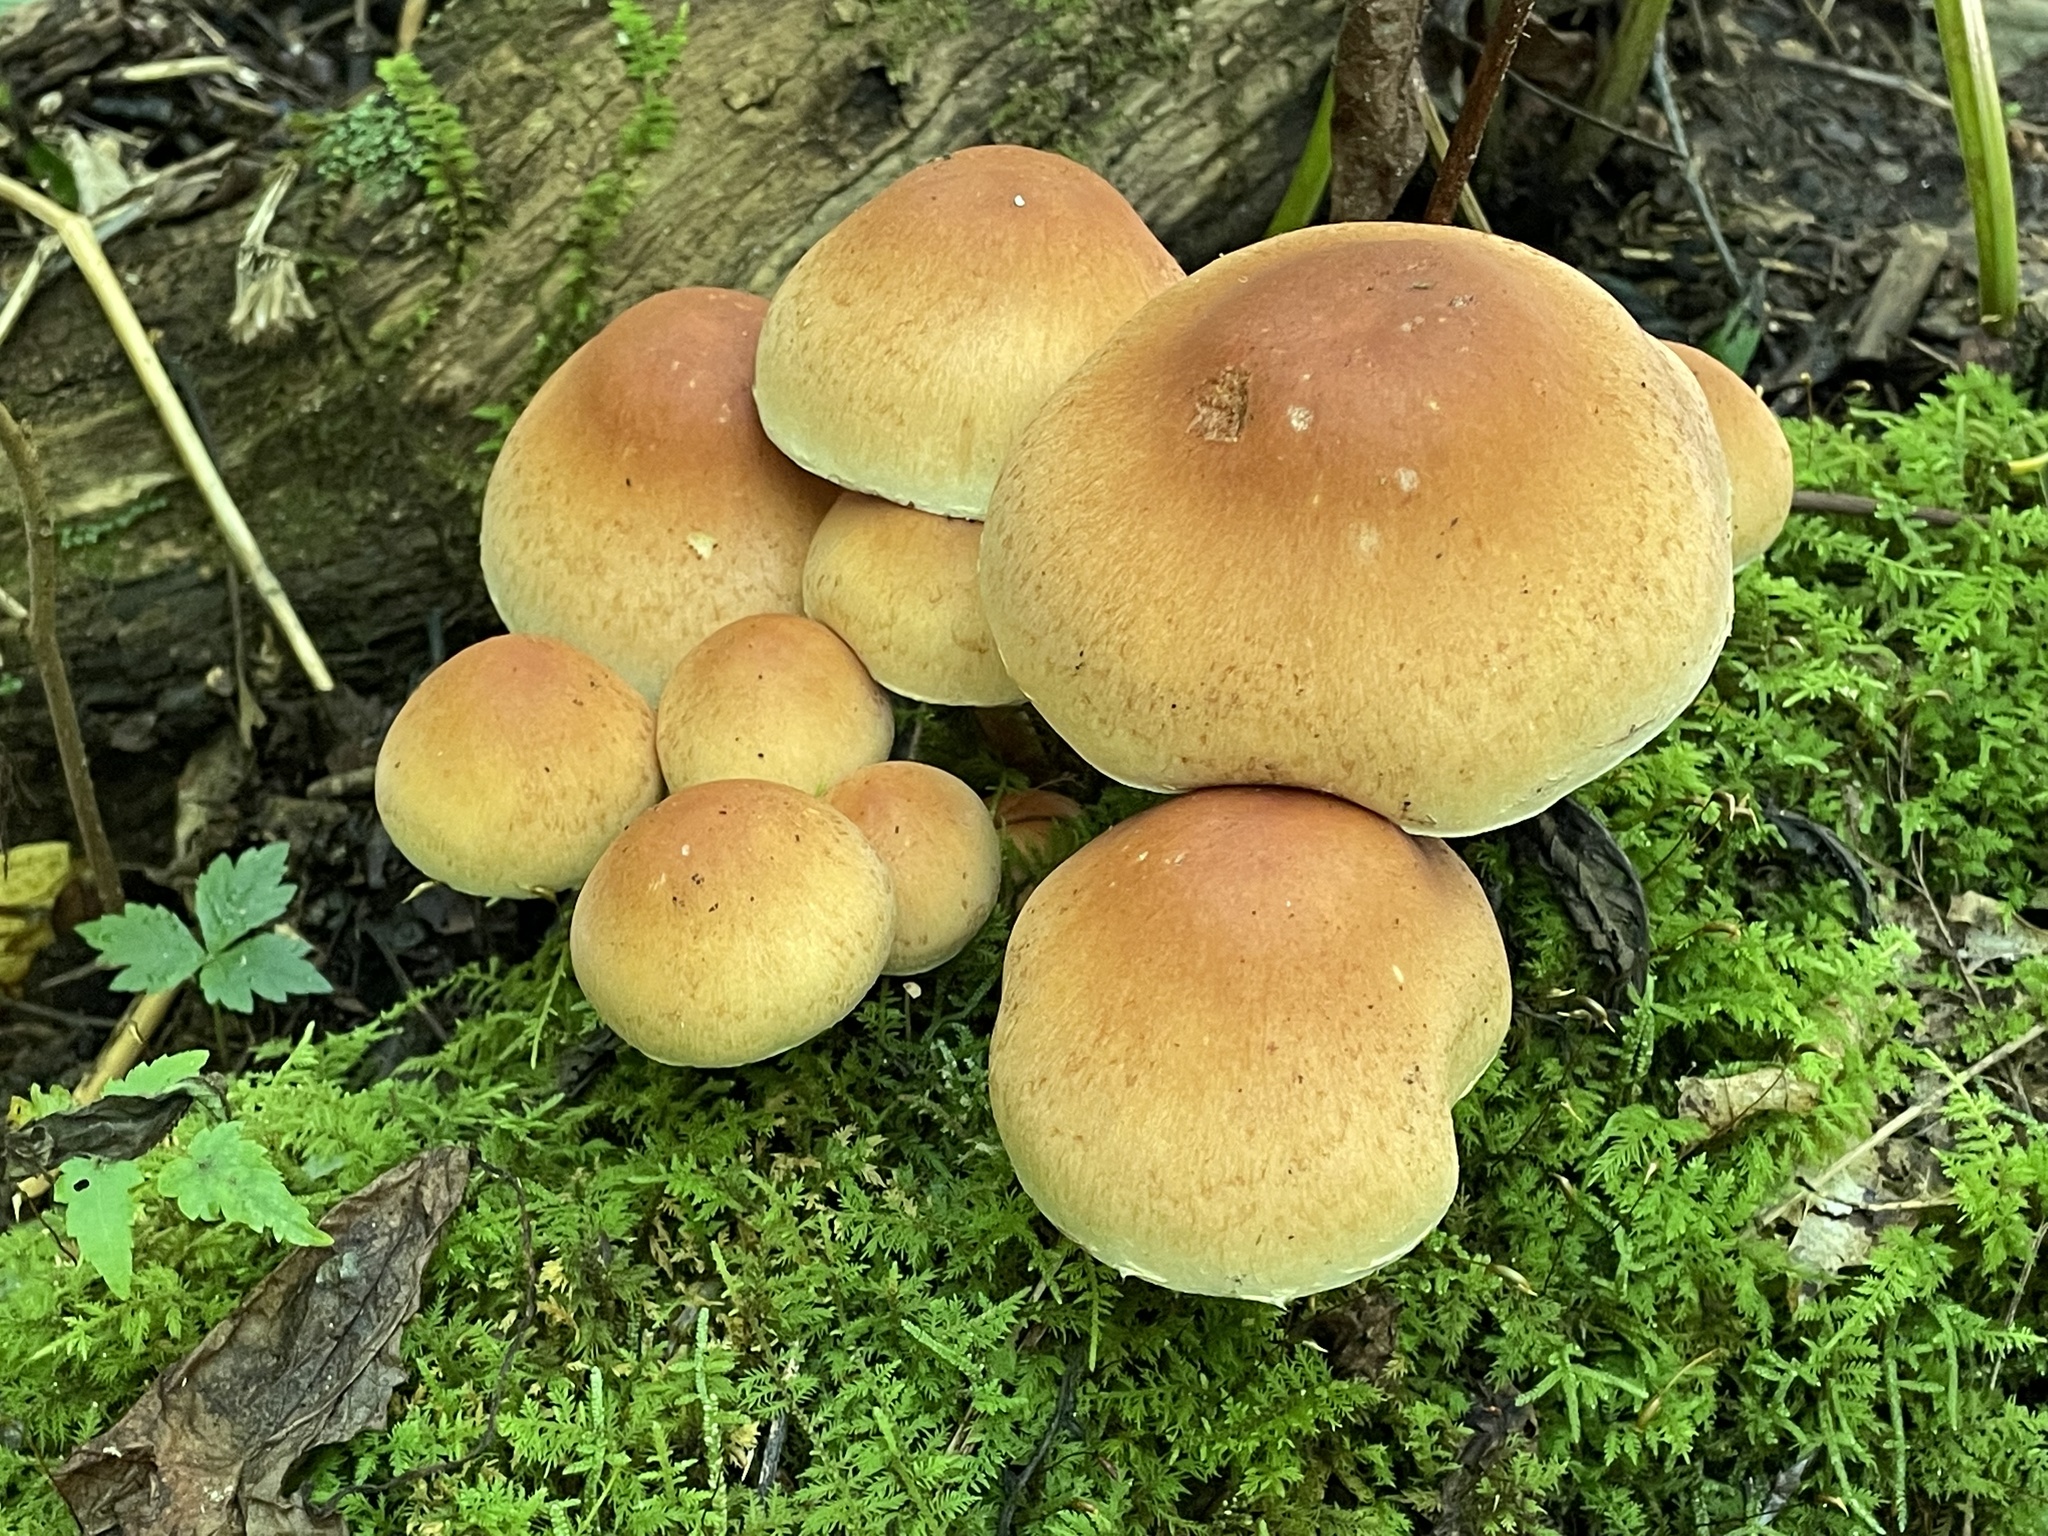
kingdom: Fungi
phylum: Basidiomycota
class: Agaricomycetes
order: Agaricales
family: Strophariaceae
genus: Hypholoma
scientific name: Hypholoma lateritium
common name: Brick caps
